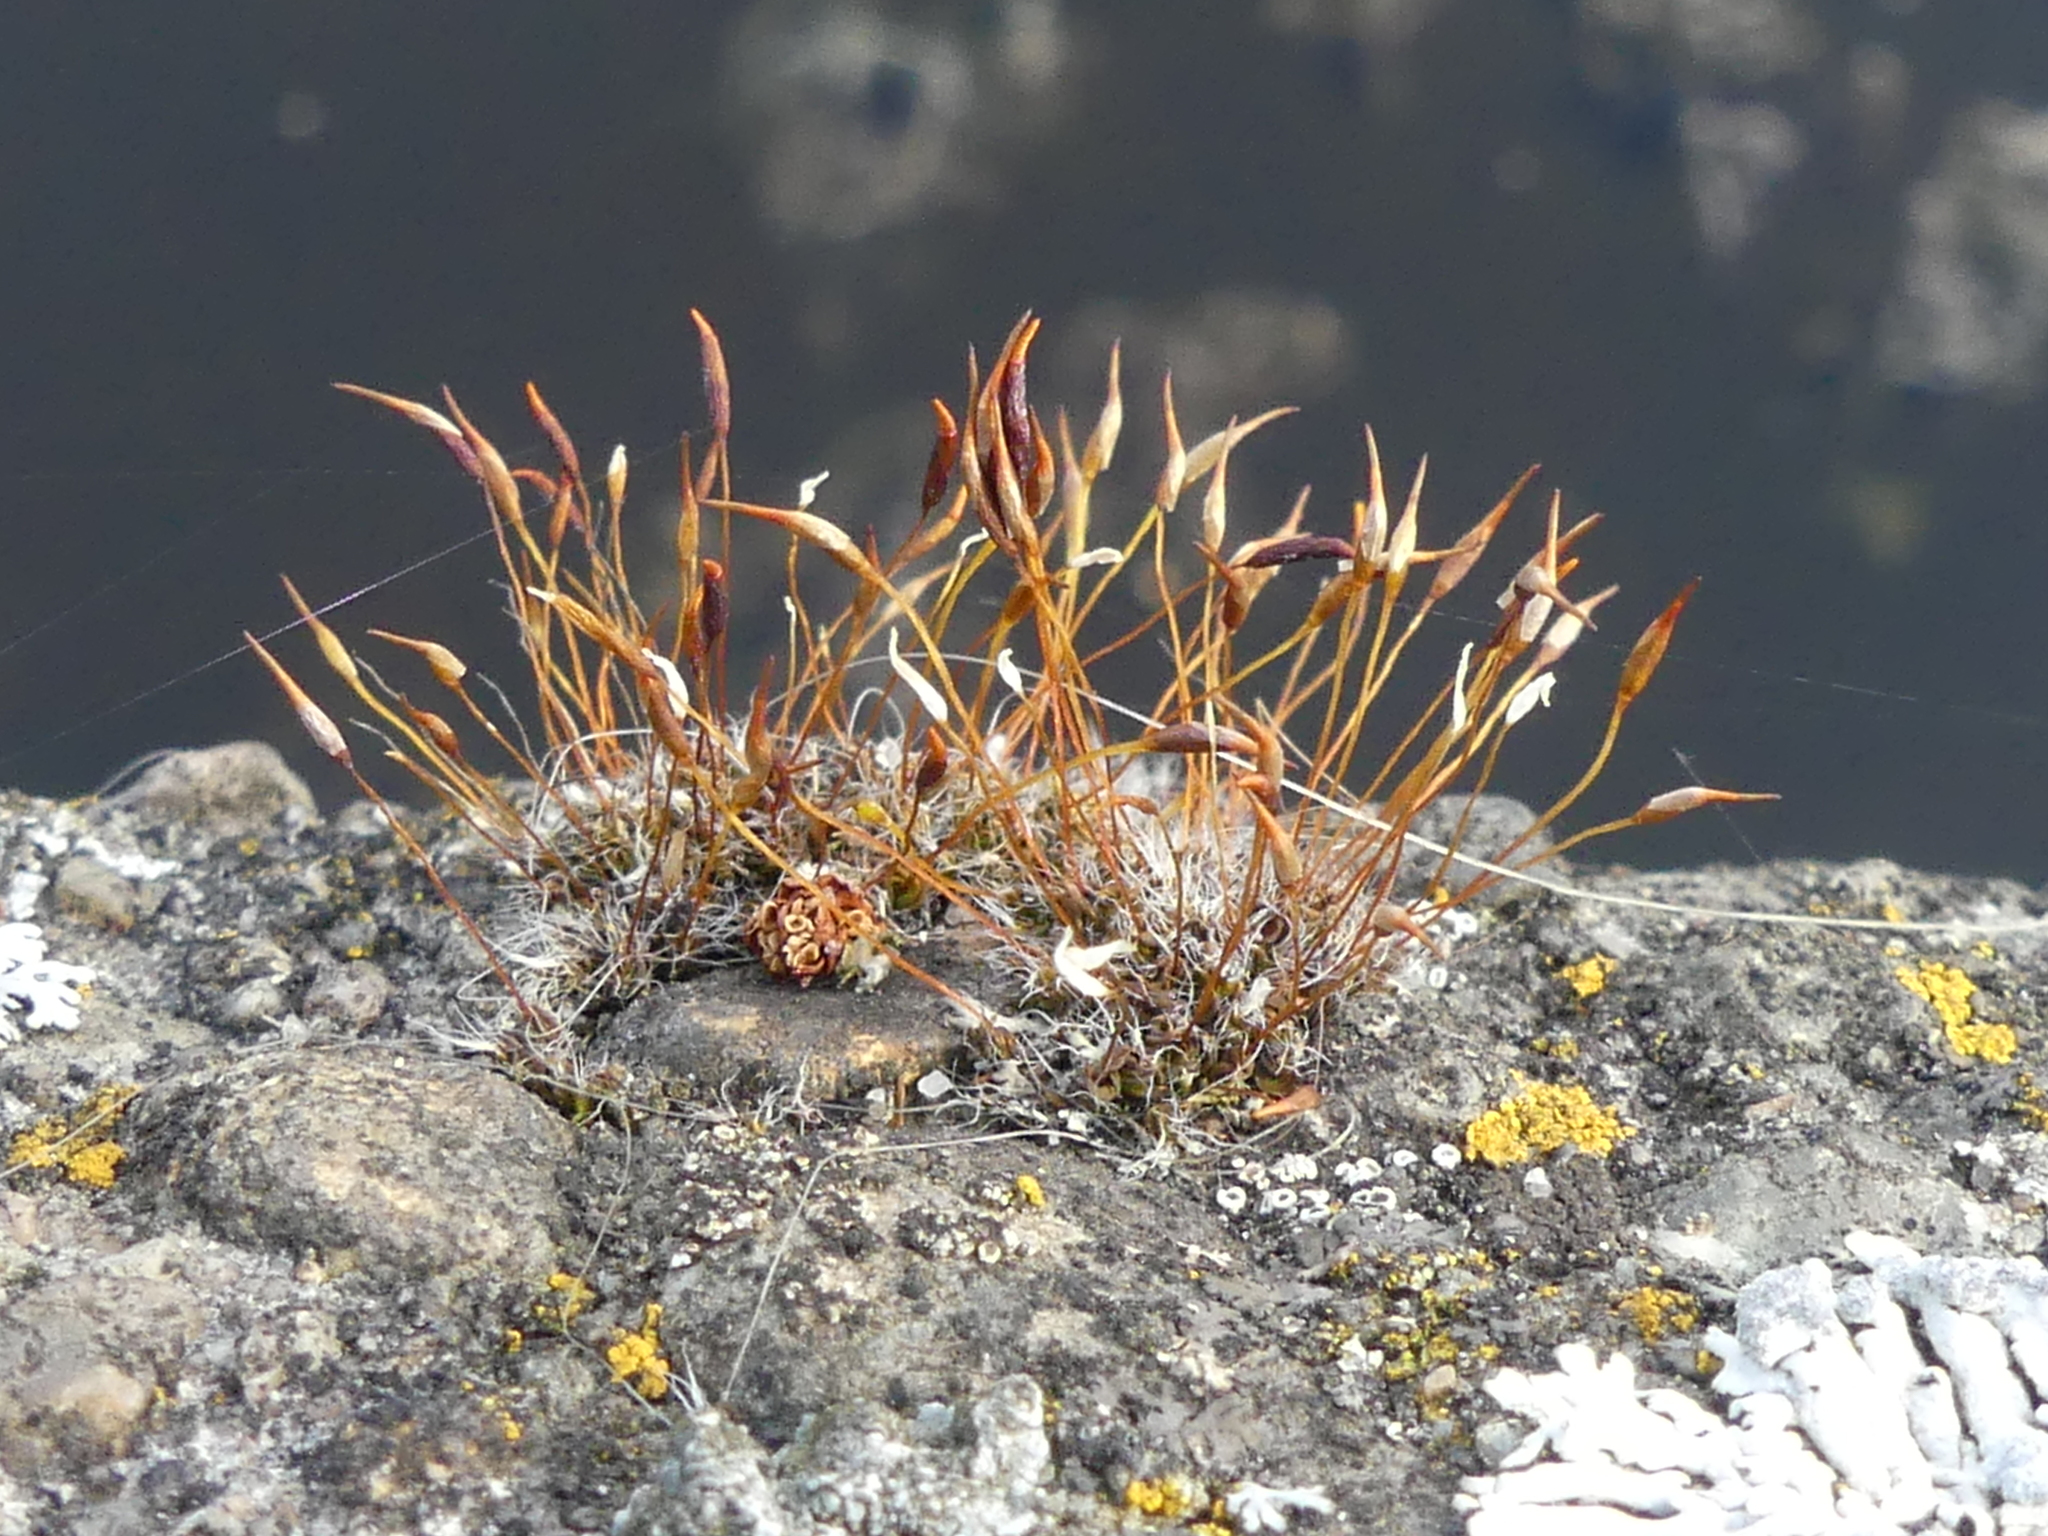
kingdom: Plantae
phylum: Bryophyta
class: Bryopsida
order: Pottiales
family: Pottiaceae
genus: Tortula
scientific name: Tortula muralis
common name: Wall screw-moss
